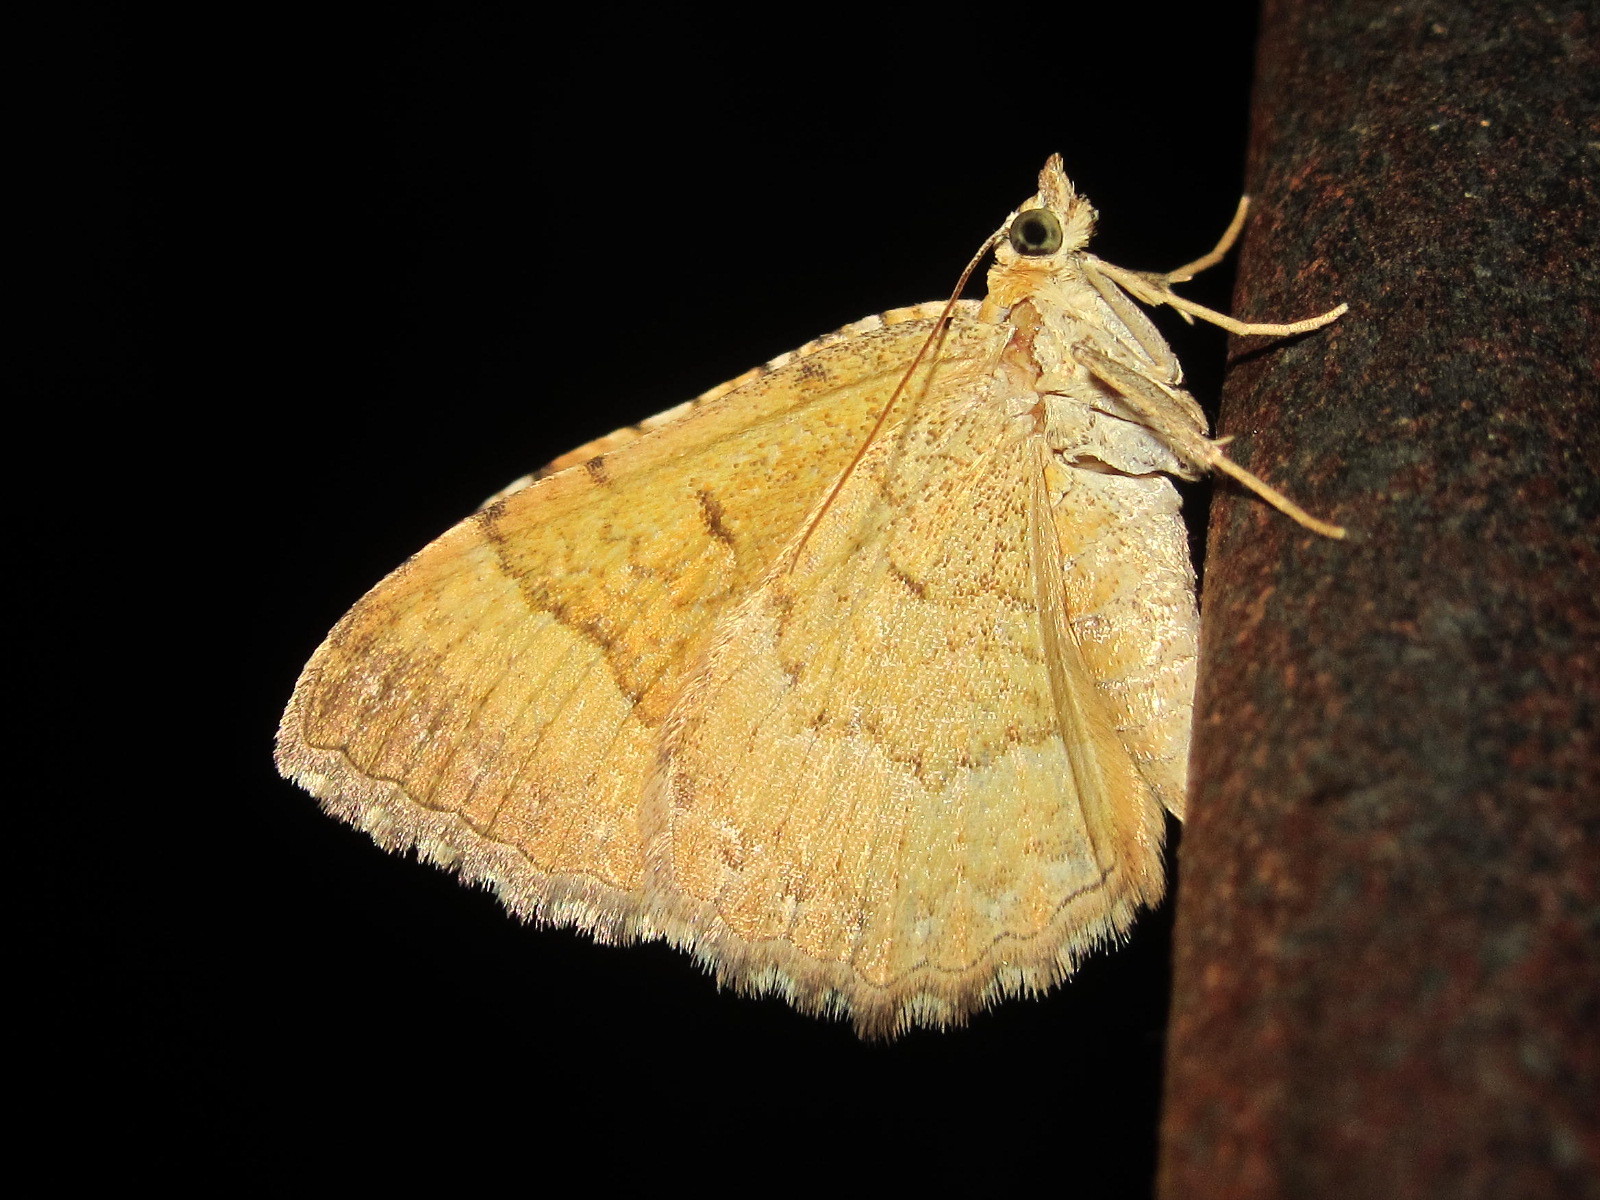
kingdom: Animalia
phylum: Arthropoda
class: Insecta
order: Lepidoptera
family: Geometridae
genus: Camptogramma
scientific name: Camptogramma bilineata
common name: Yellow shell
